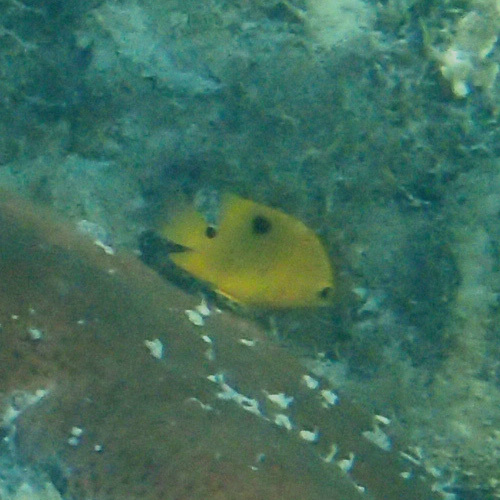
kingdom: Animalia
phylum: Chordata
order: Perciformes
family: Pomacentridae
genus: Stegastes
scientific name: Stegastes planifrons
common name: Threespot damselfish
